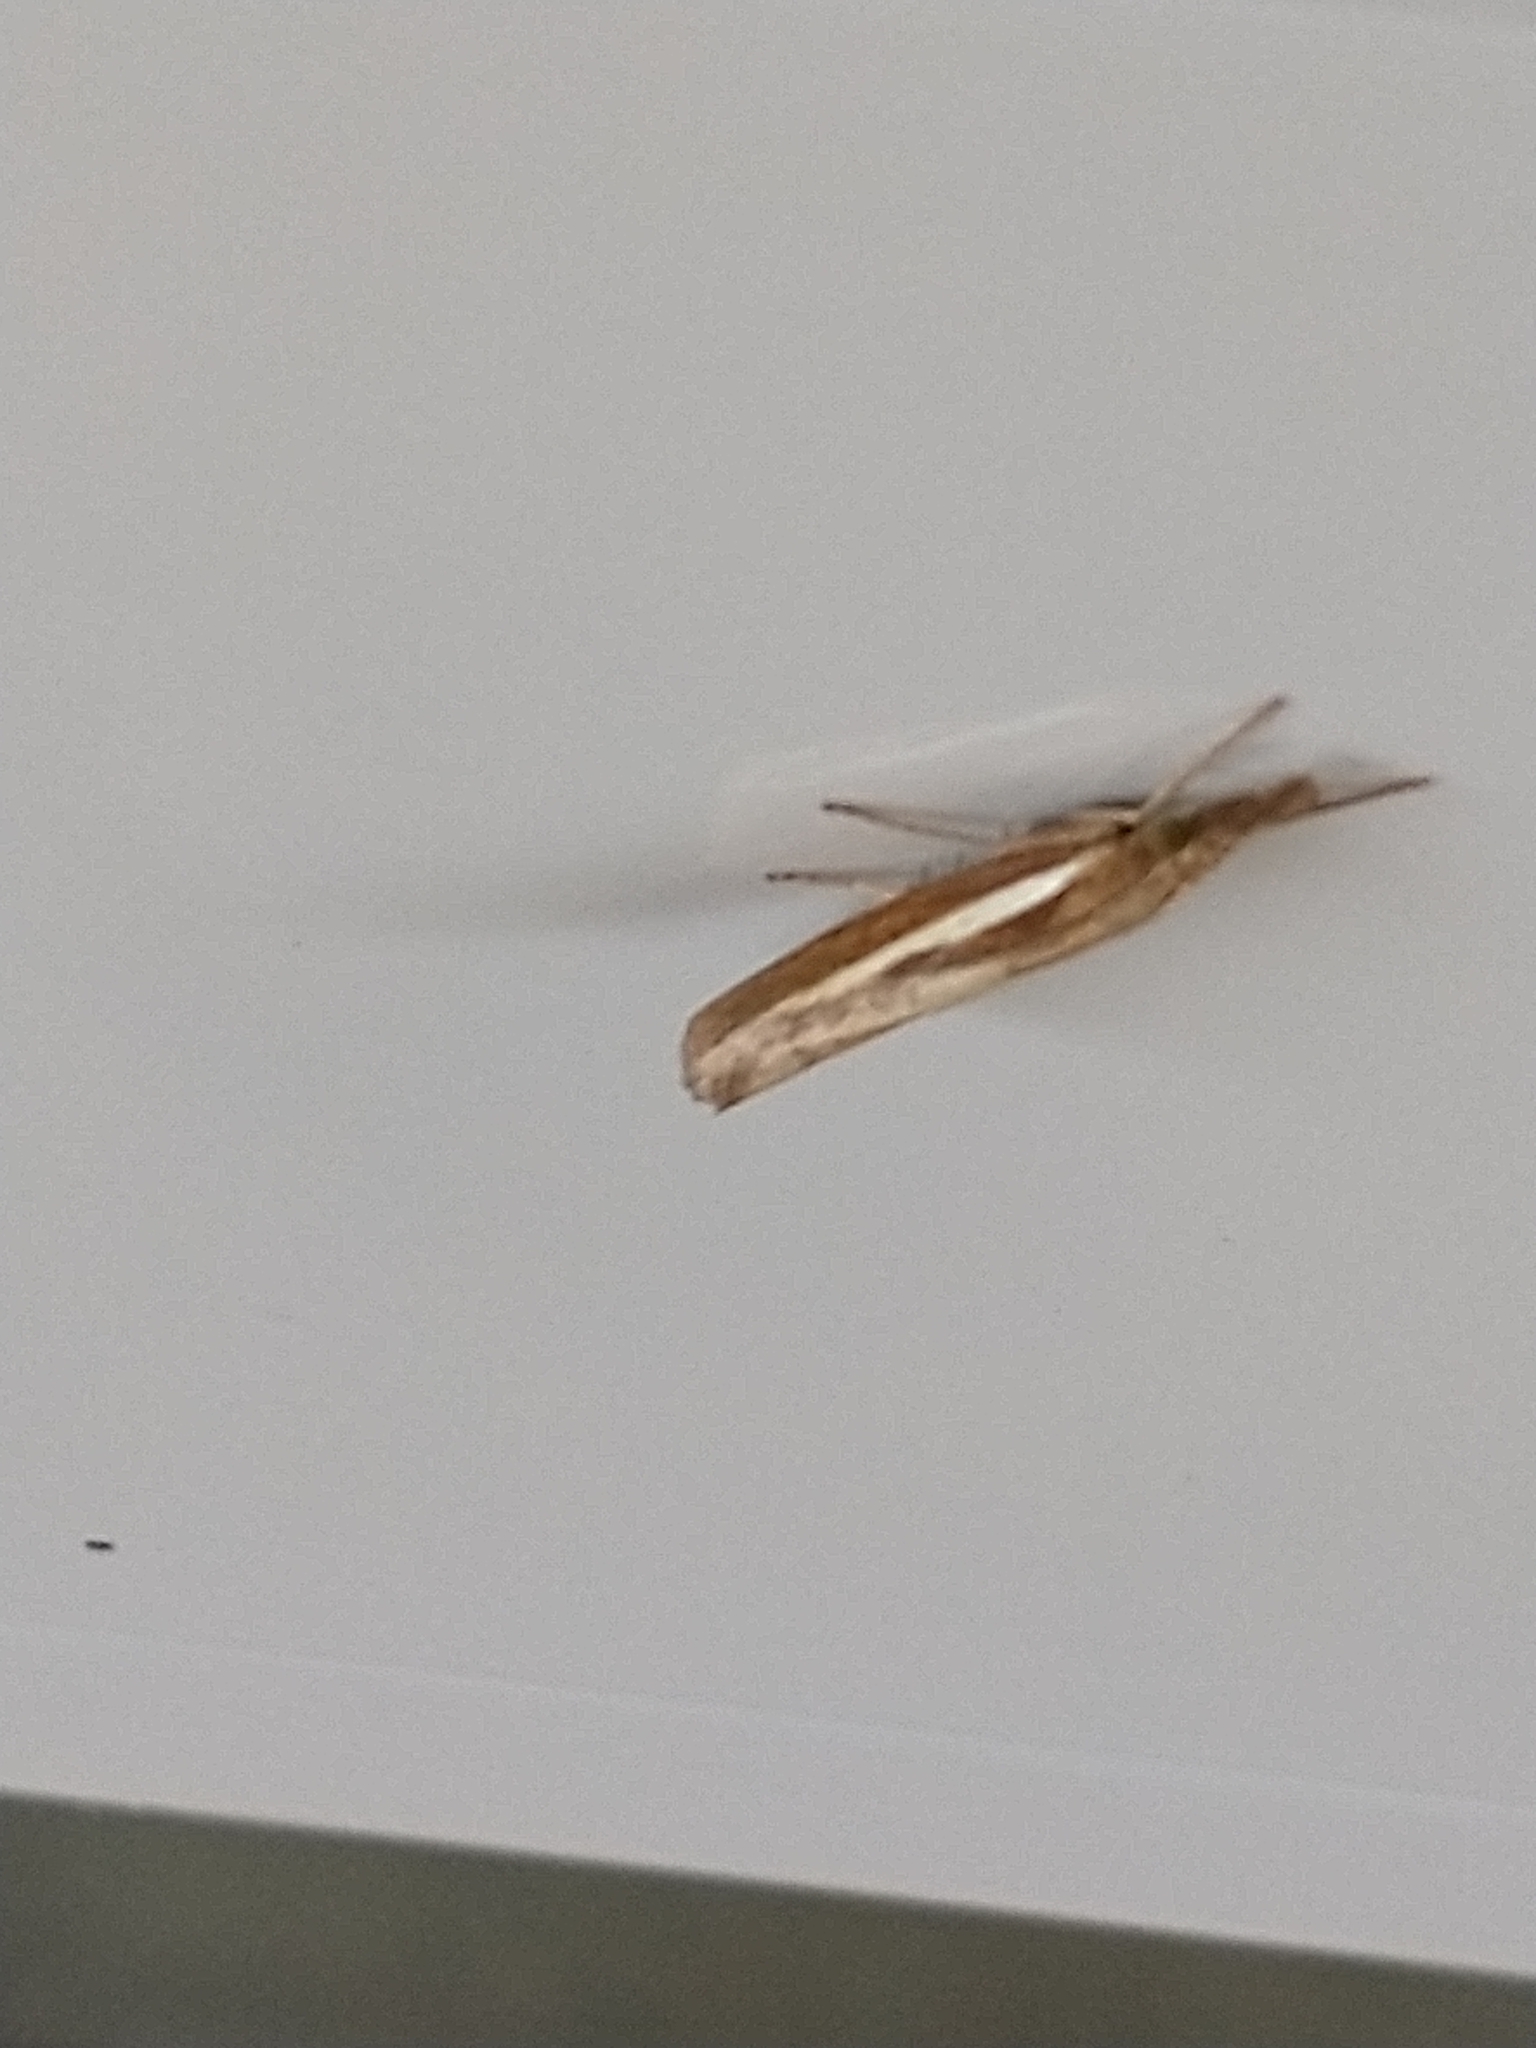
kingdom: Animalia
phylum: Arthropoda
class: Insecta
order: Lepidoptera
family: Crambidae
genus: Agriphila
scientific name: Agriphila tristellus
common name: Common grass-veneer
